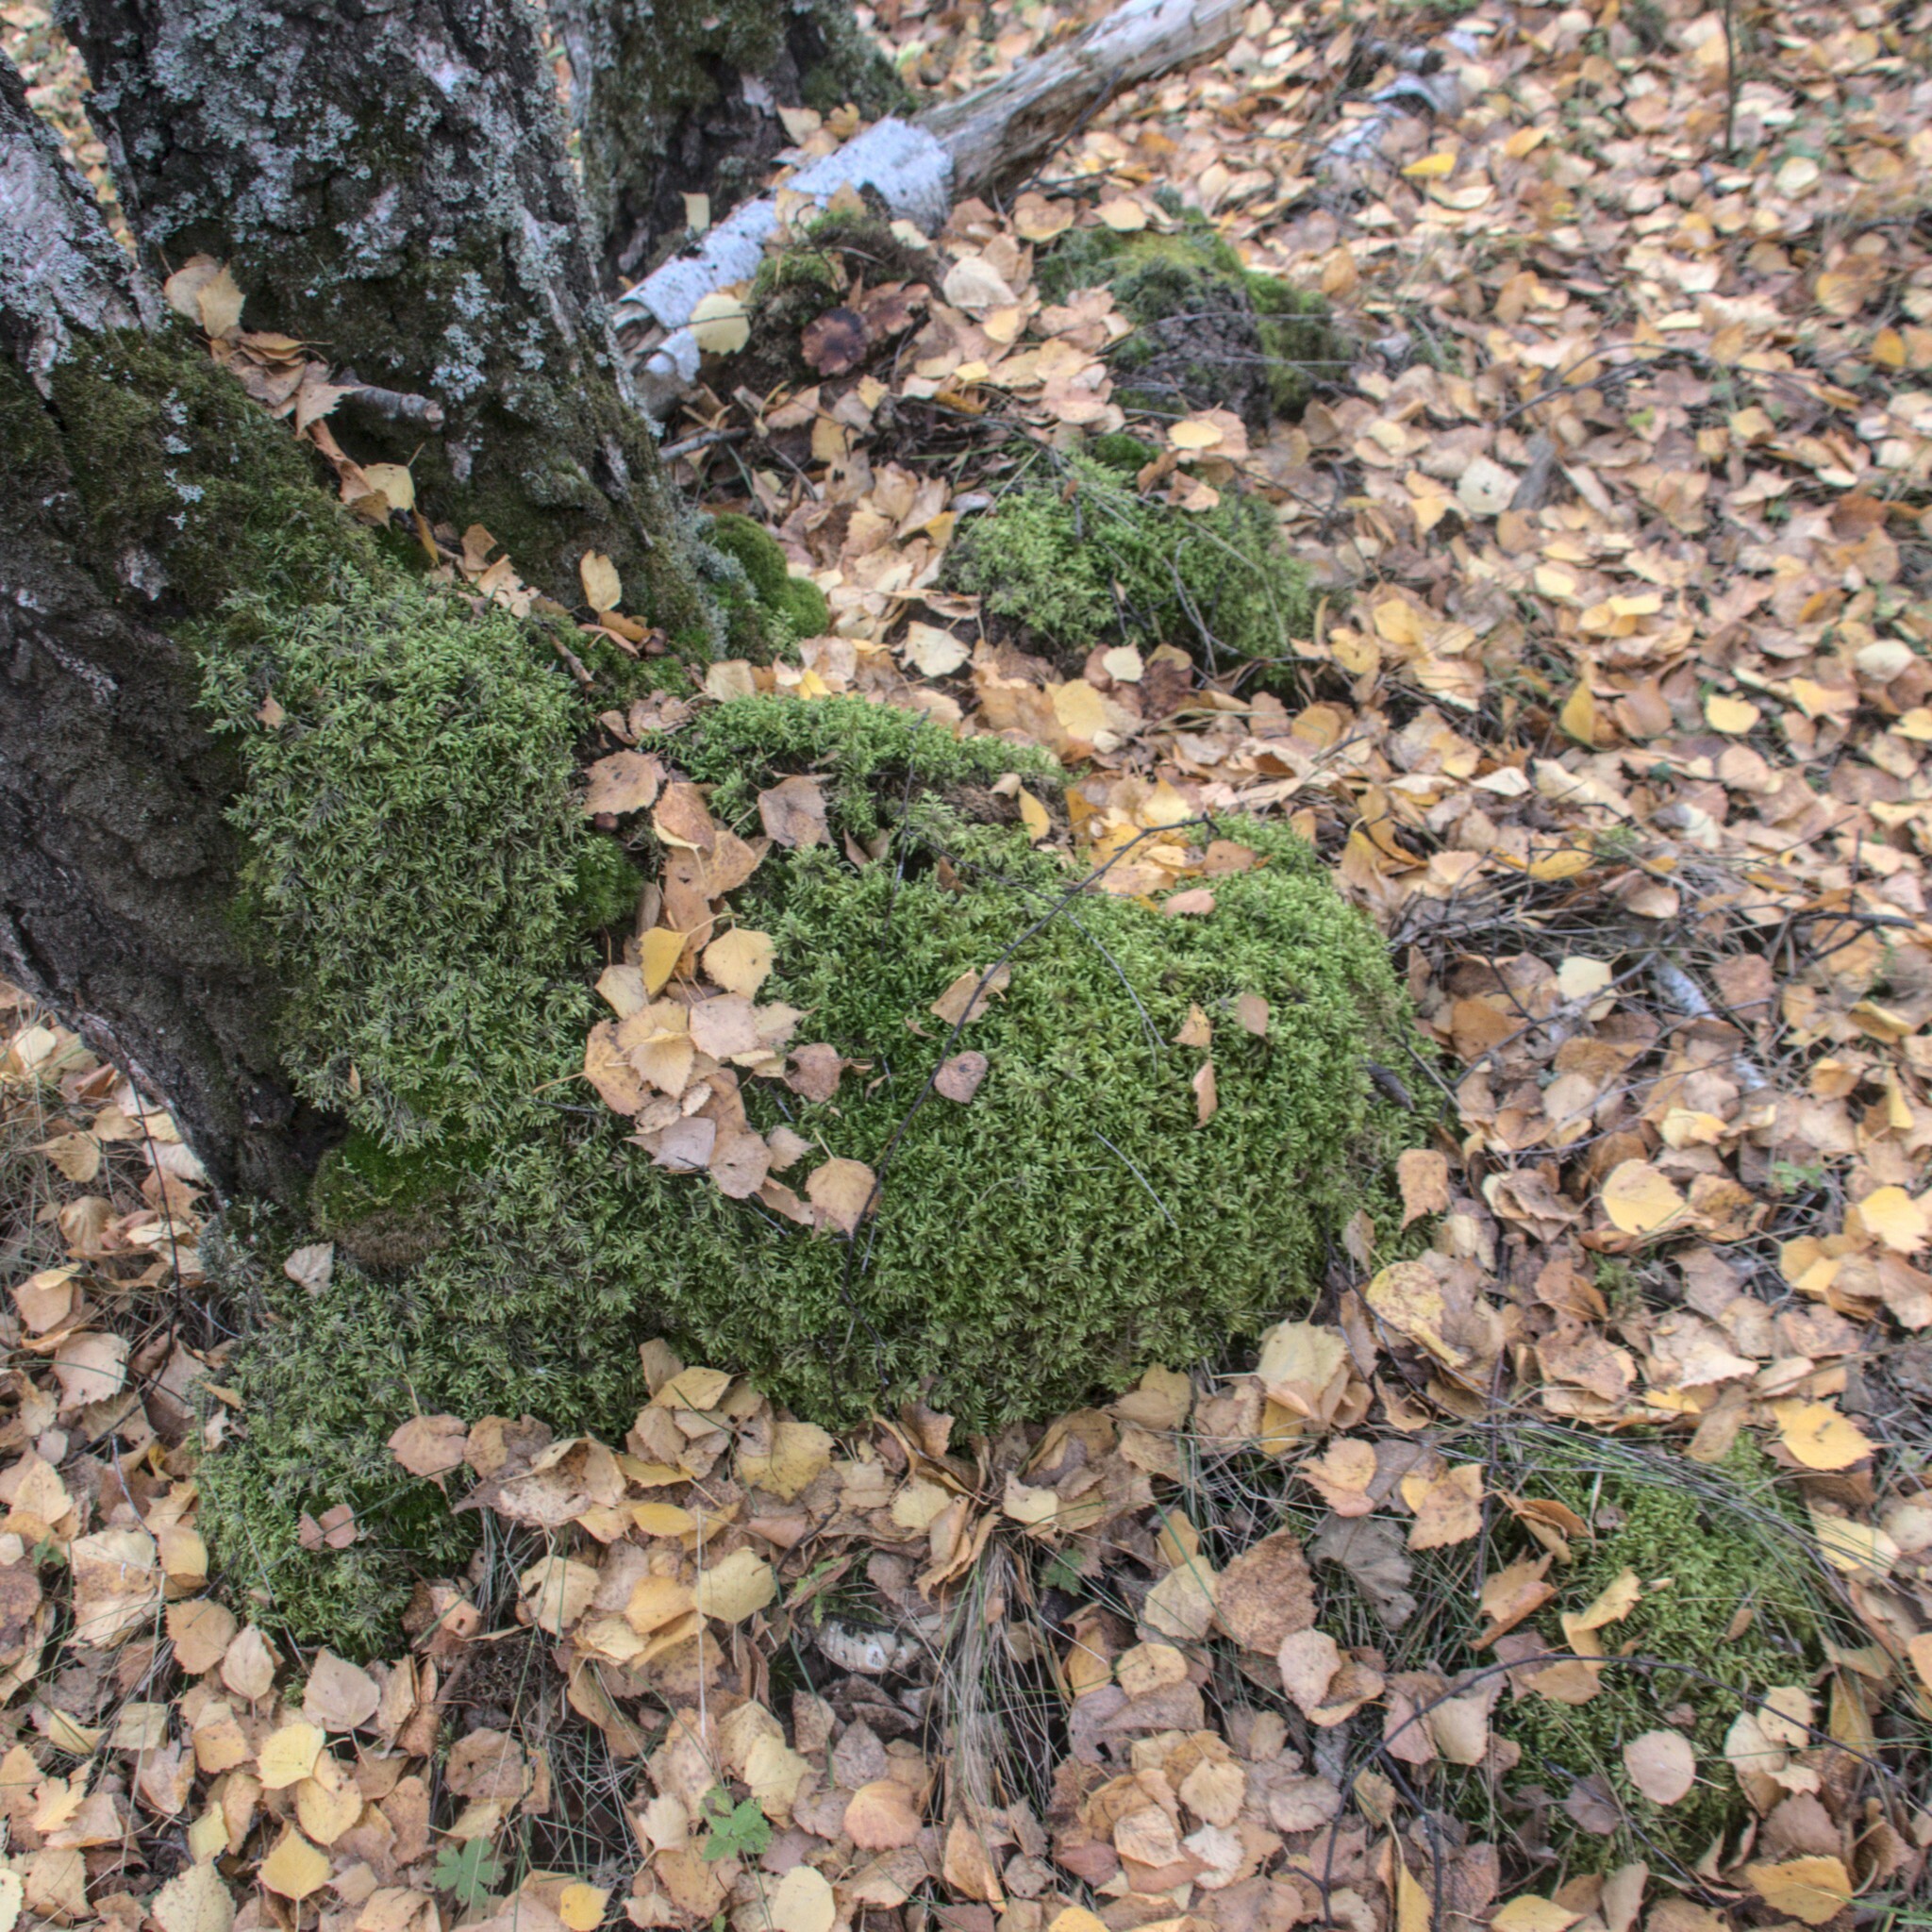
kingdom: Plantae
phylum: Bryophyta
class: Bryopsida
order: Hypnales
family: Hylocomiaceae
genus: Pleurozium
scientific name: Pleurozium schreberi
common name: Red-stemmed feather moss
